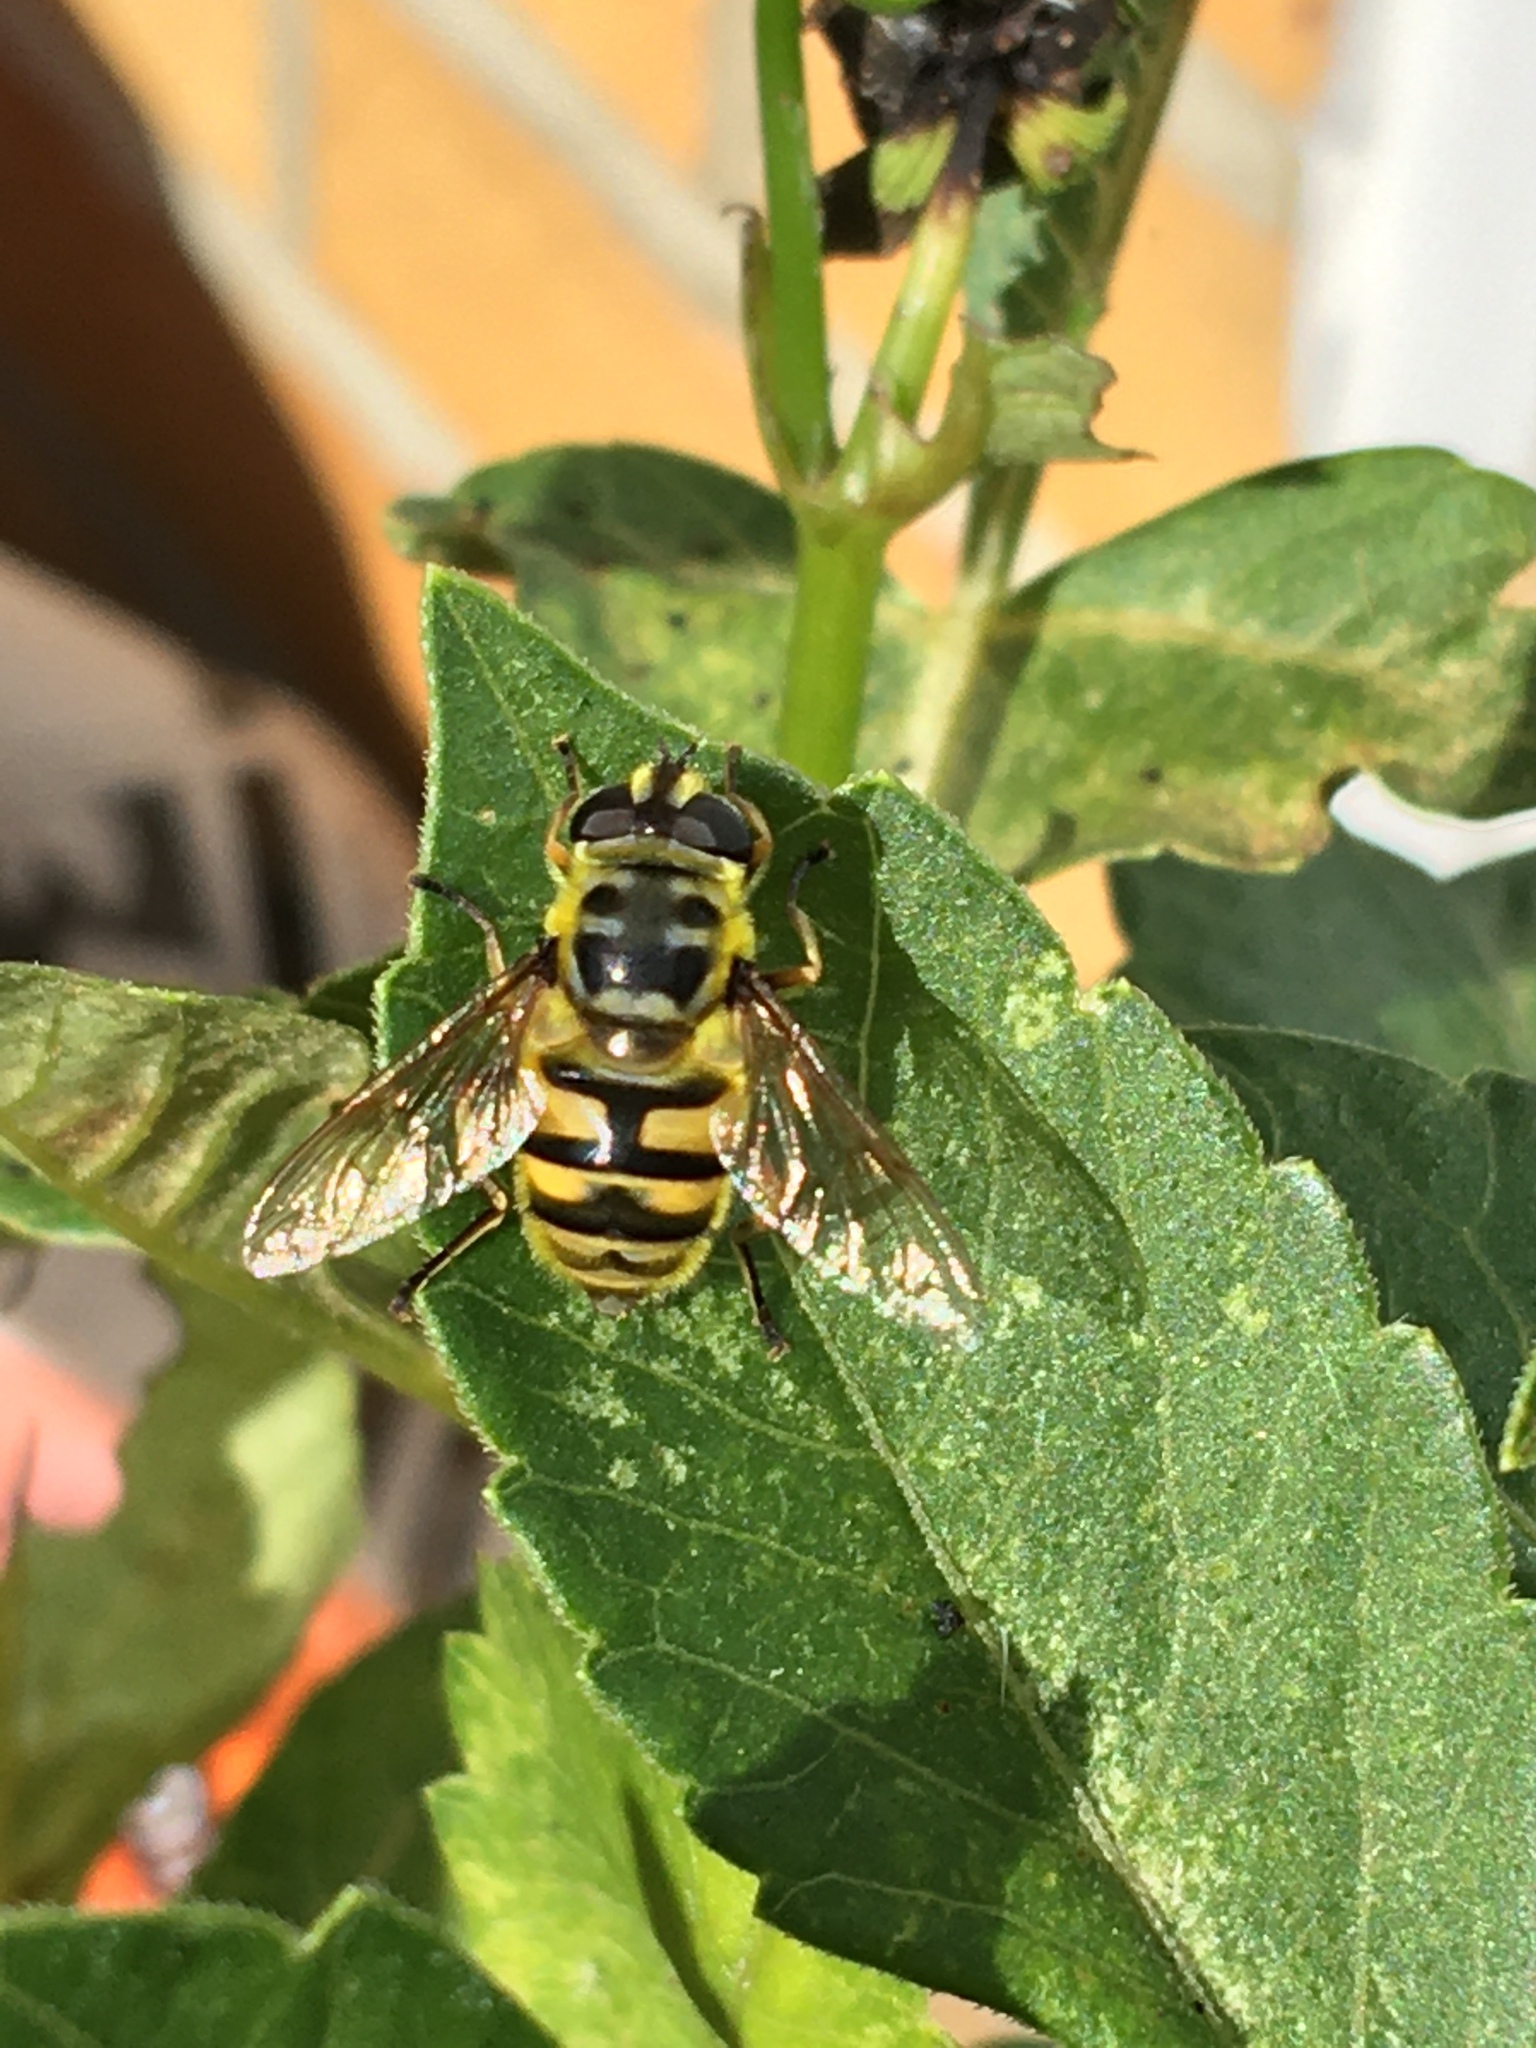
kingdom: Animalia
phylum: Arthropoda
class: Insecta
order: Diptera
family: Syrphidae
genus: Myathropa
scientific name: Myathropa florea
